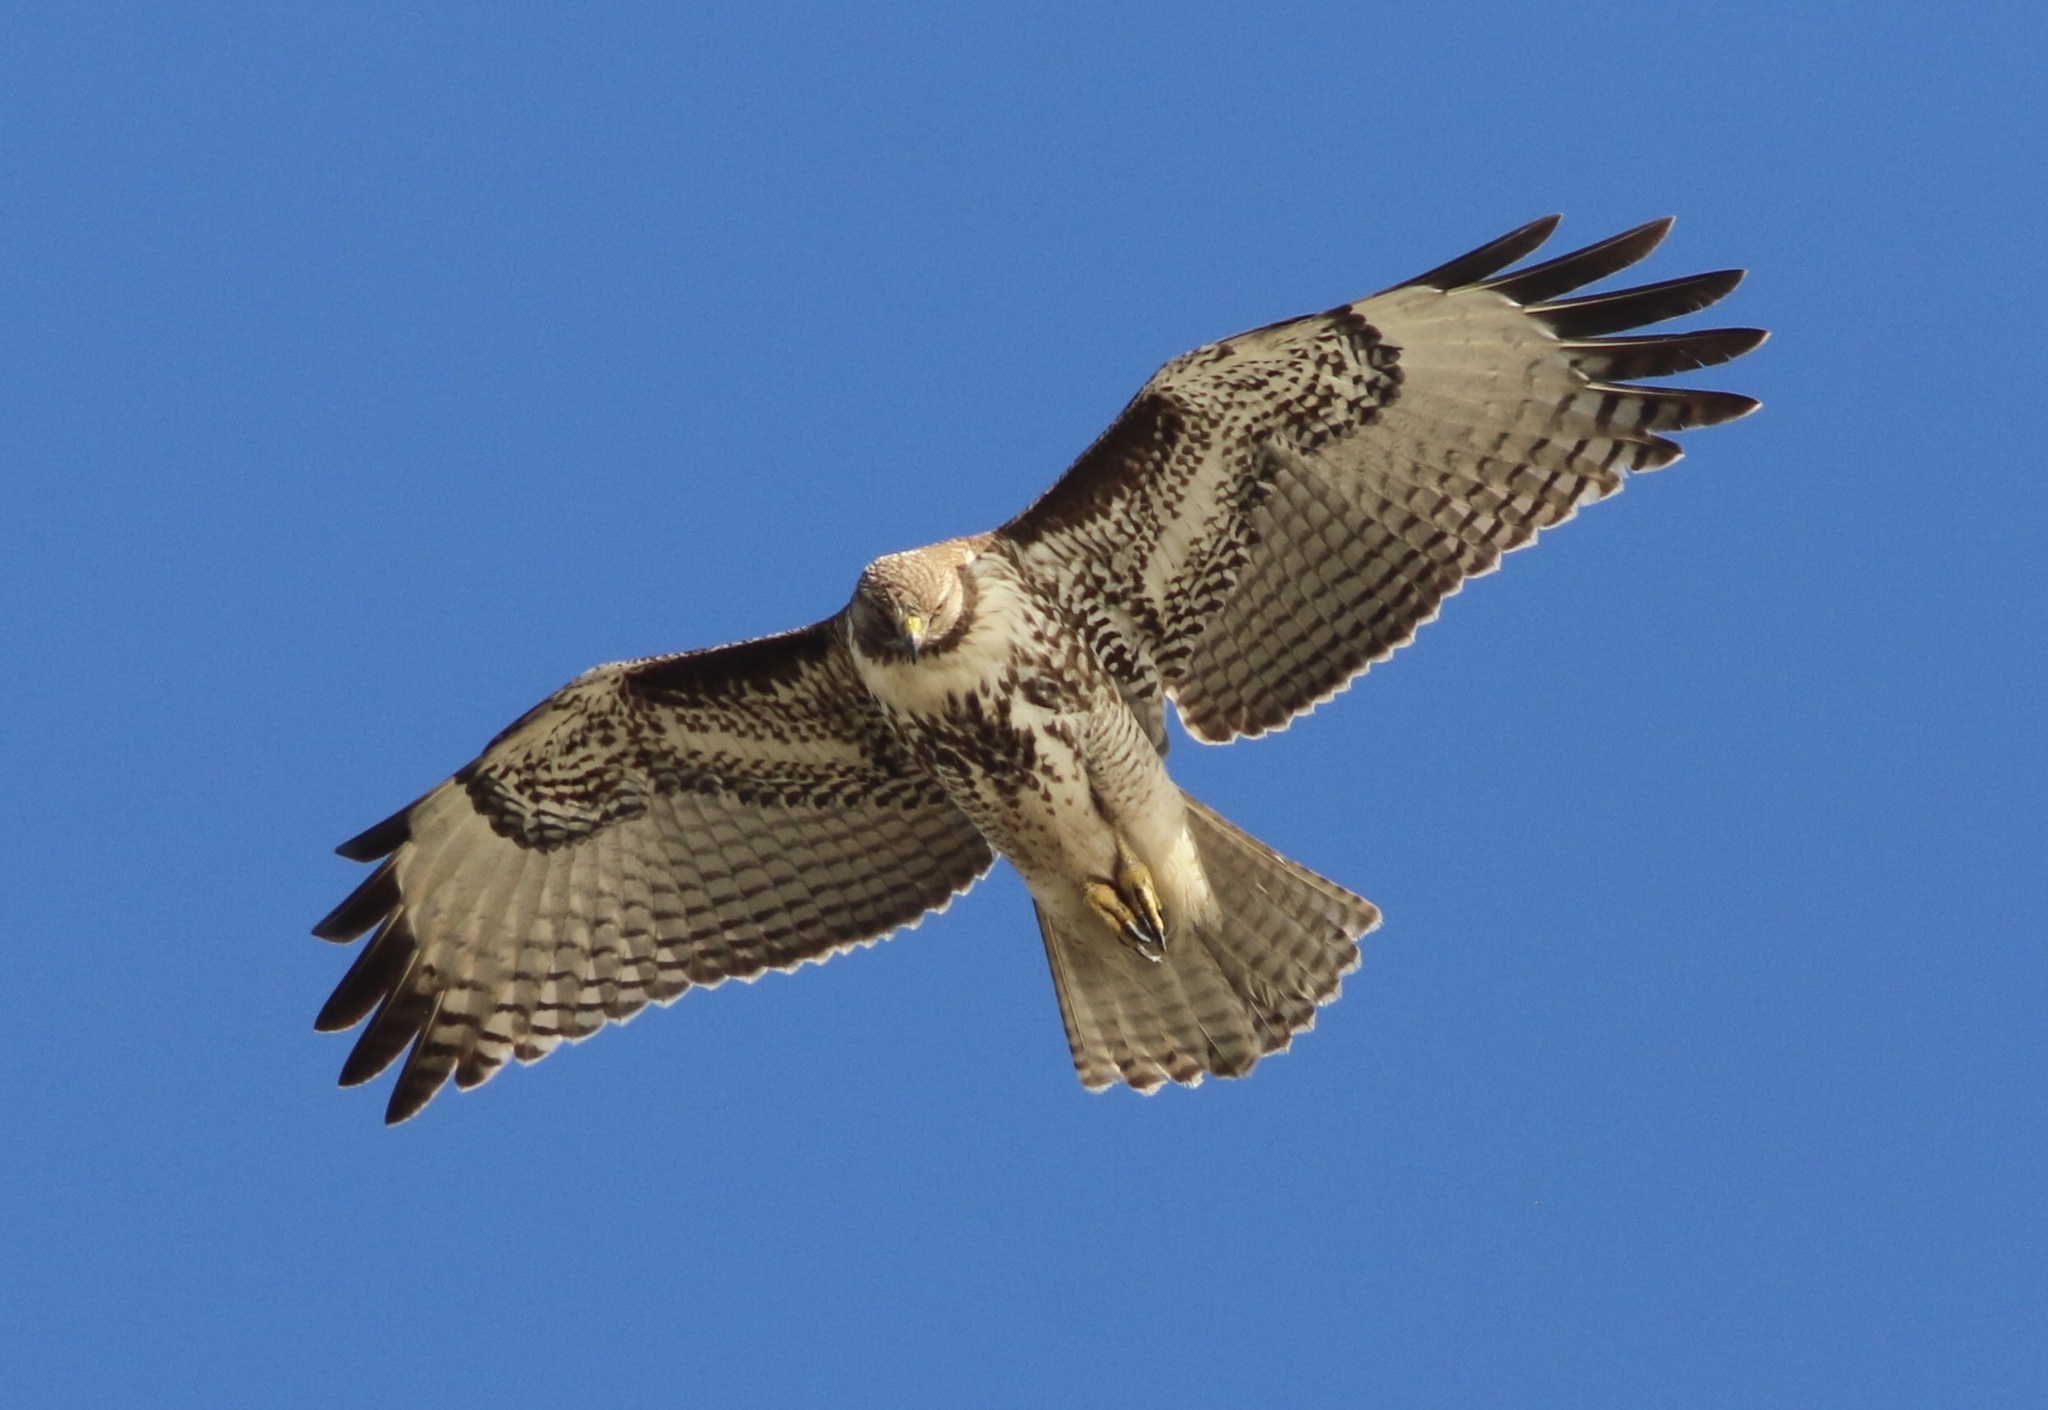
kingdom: Animalia
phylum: Chordata
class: Aves
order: Accipitriformes
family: Accipitridae
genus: Buteo
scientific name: Buteo jamaicensis
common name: Red-tailed hawk
